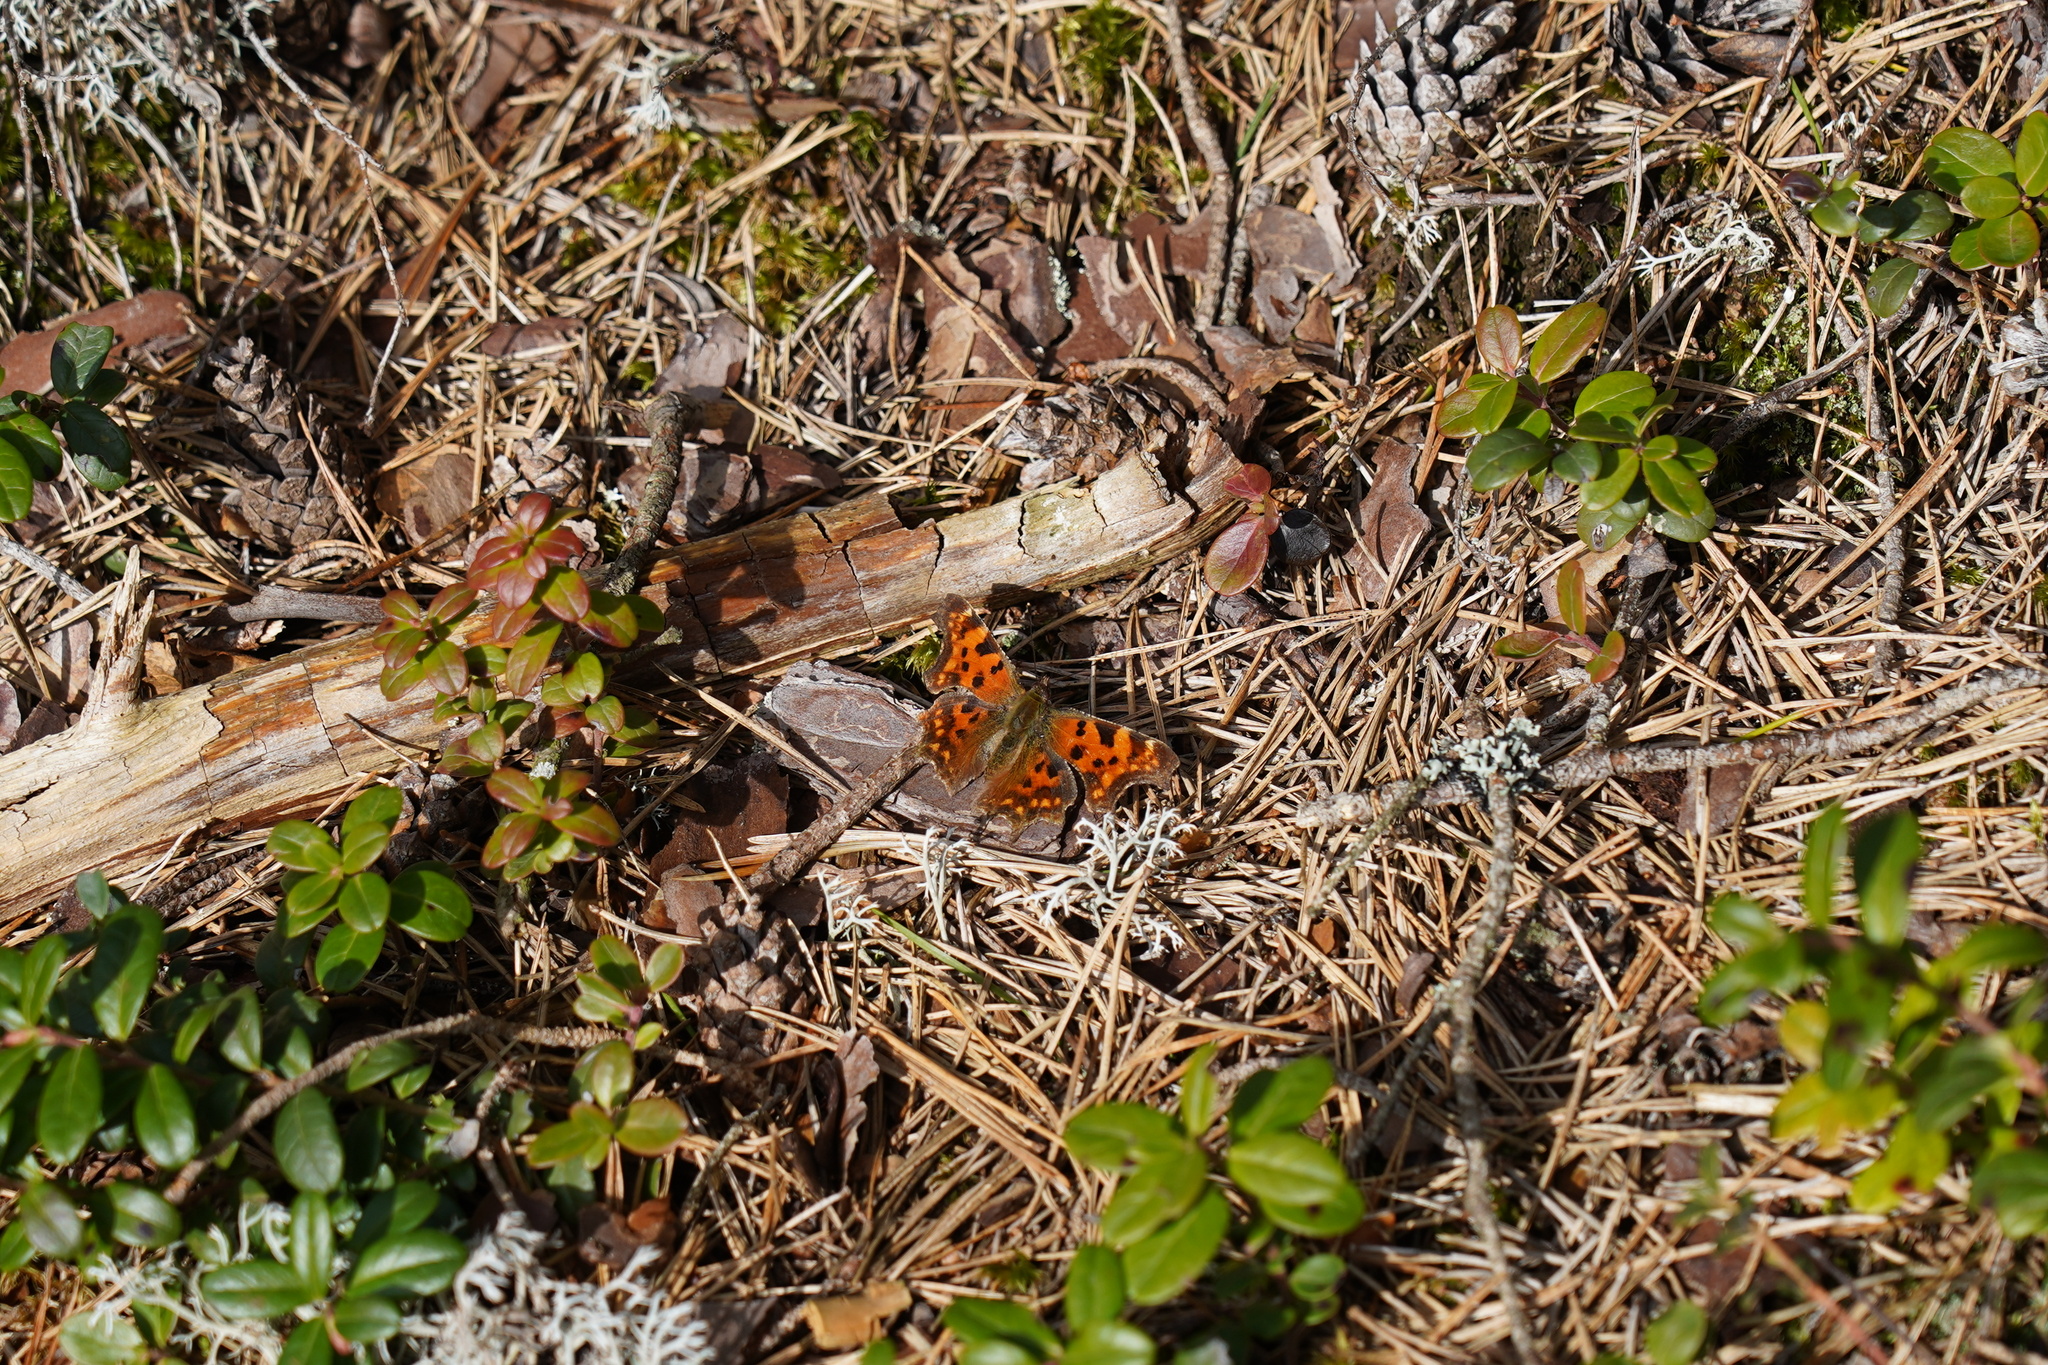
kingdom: Animalia
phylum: Arthropoda
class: Insecta
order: Lepidoptera
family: Nymphalidae
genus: Polygonia
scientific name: Polygonia c-album
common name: Comma
